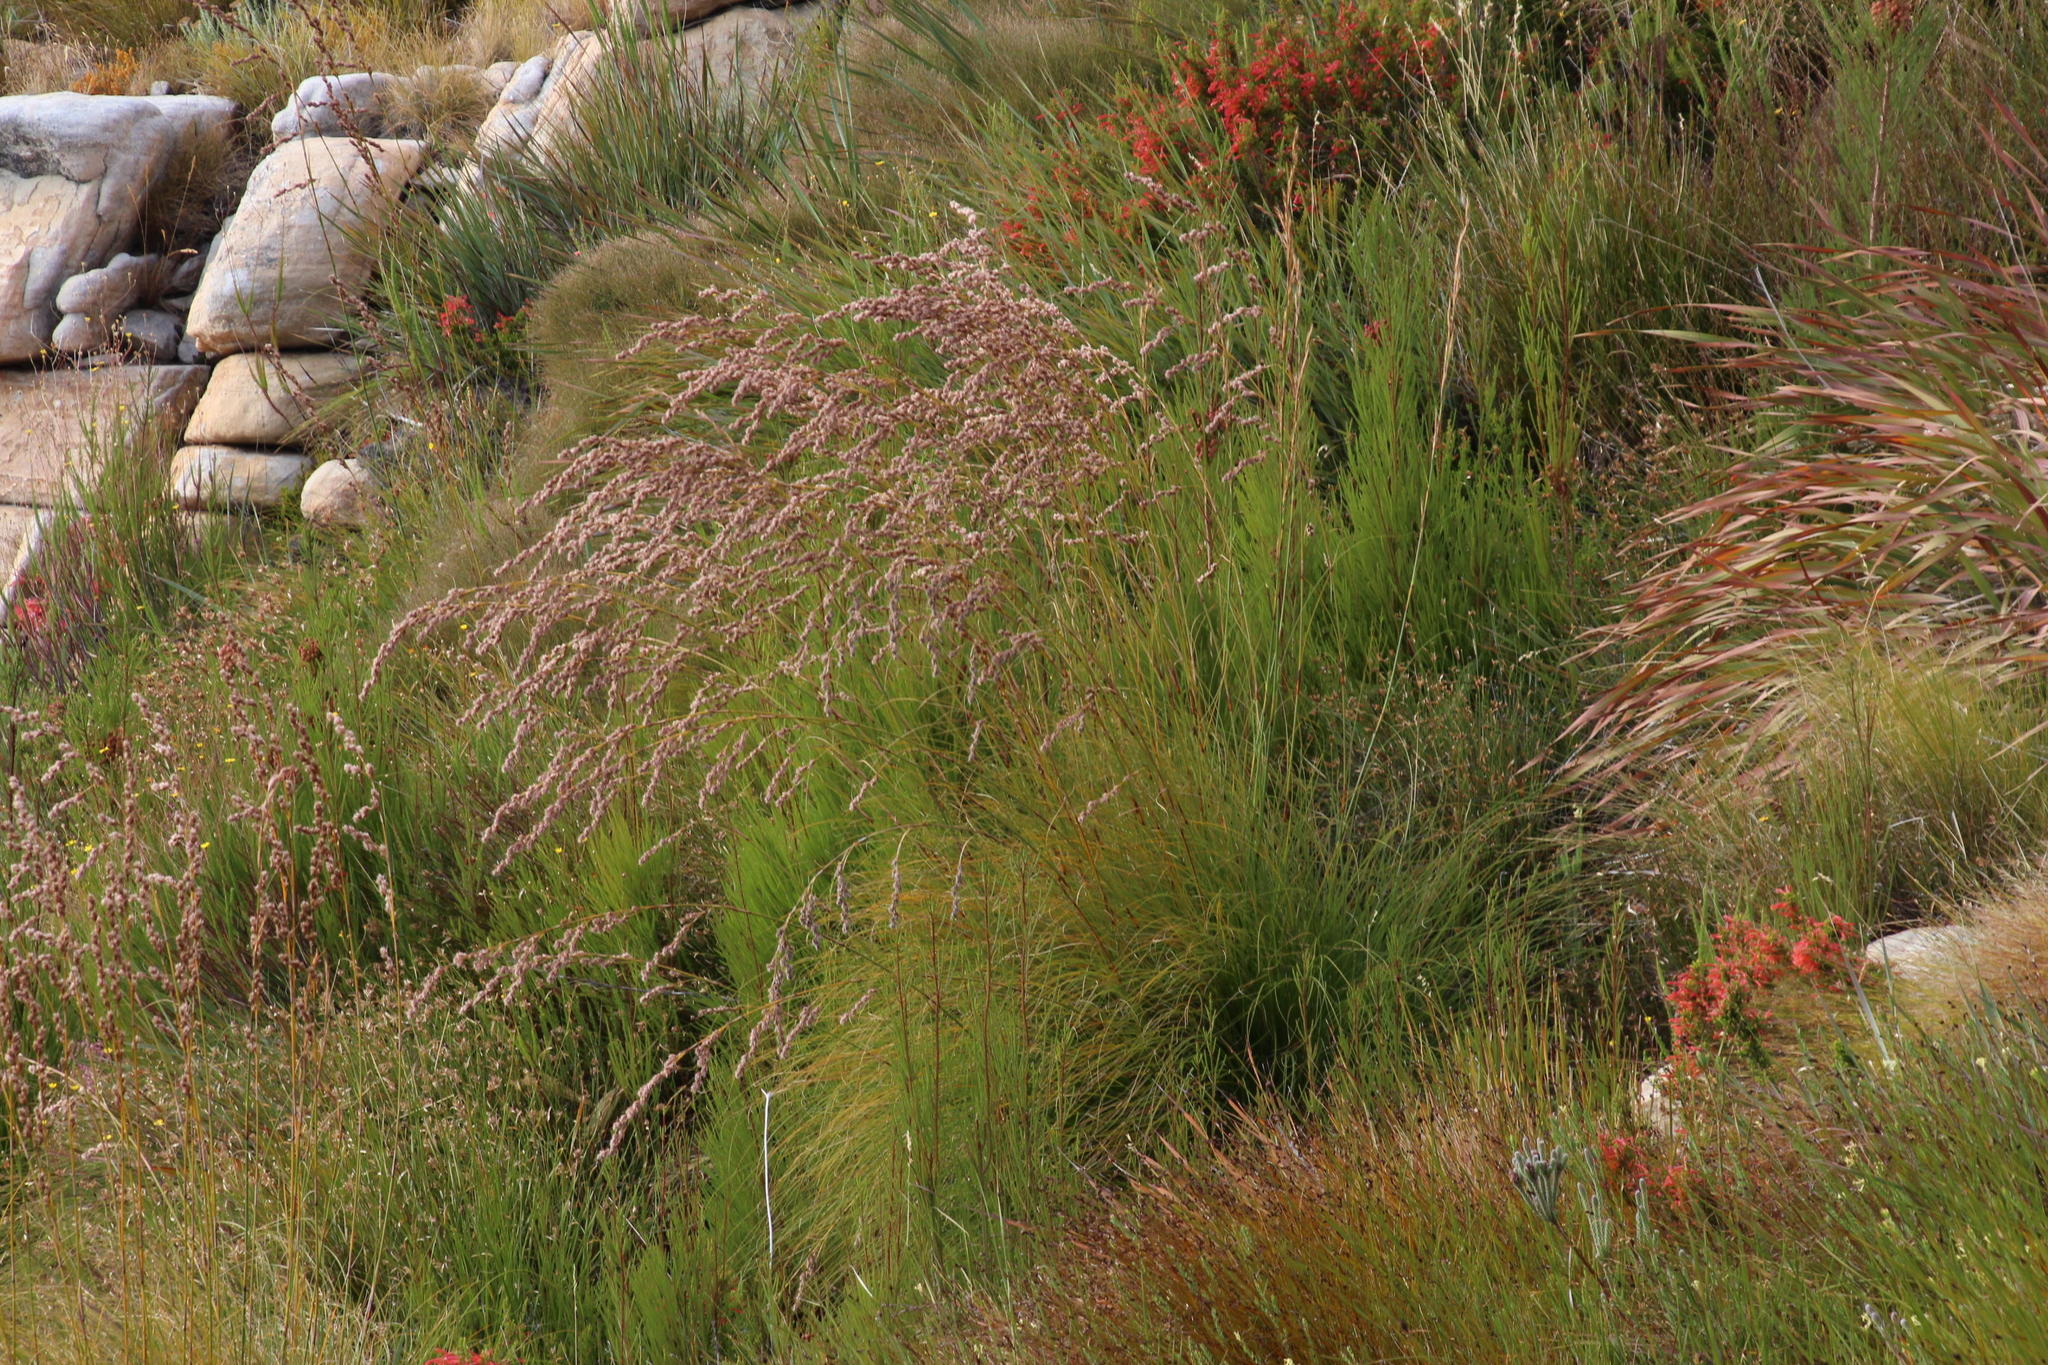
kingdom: Plantae
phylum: Tracheophyta
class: Liliopsida
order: Poales
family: Cyperaceae
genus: Tetraria
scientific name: Tetraria bromoides
